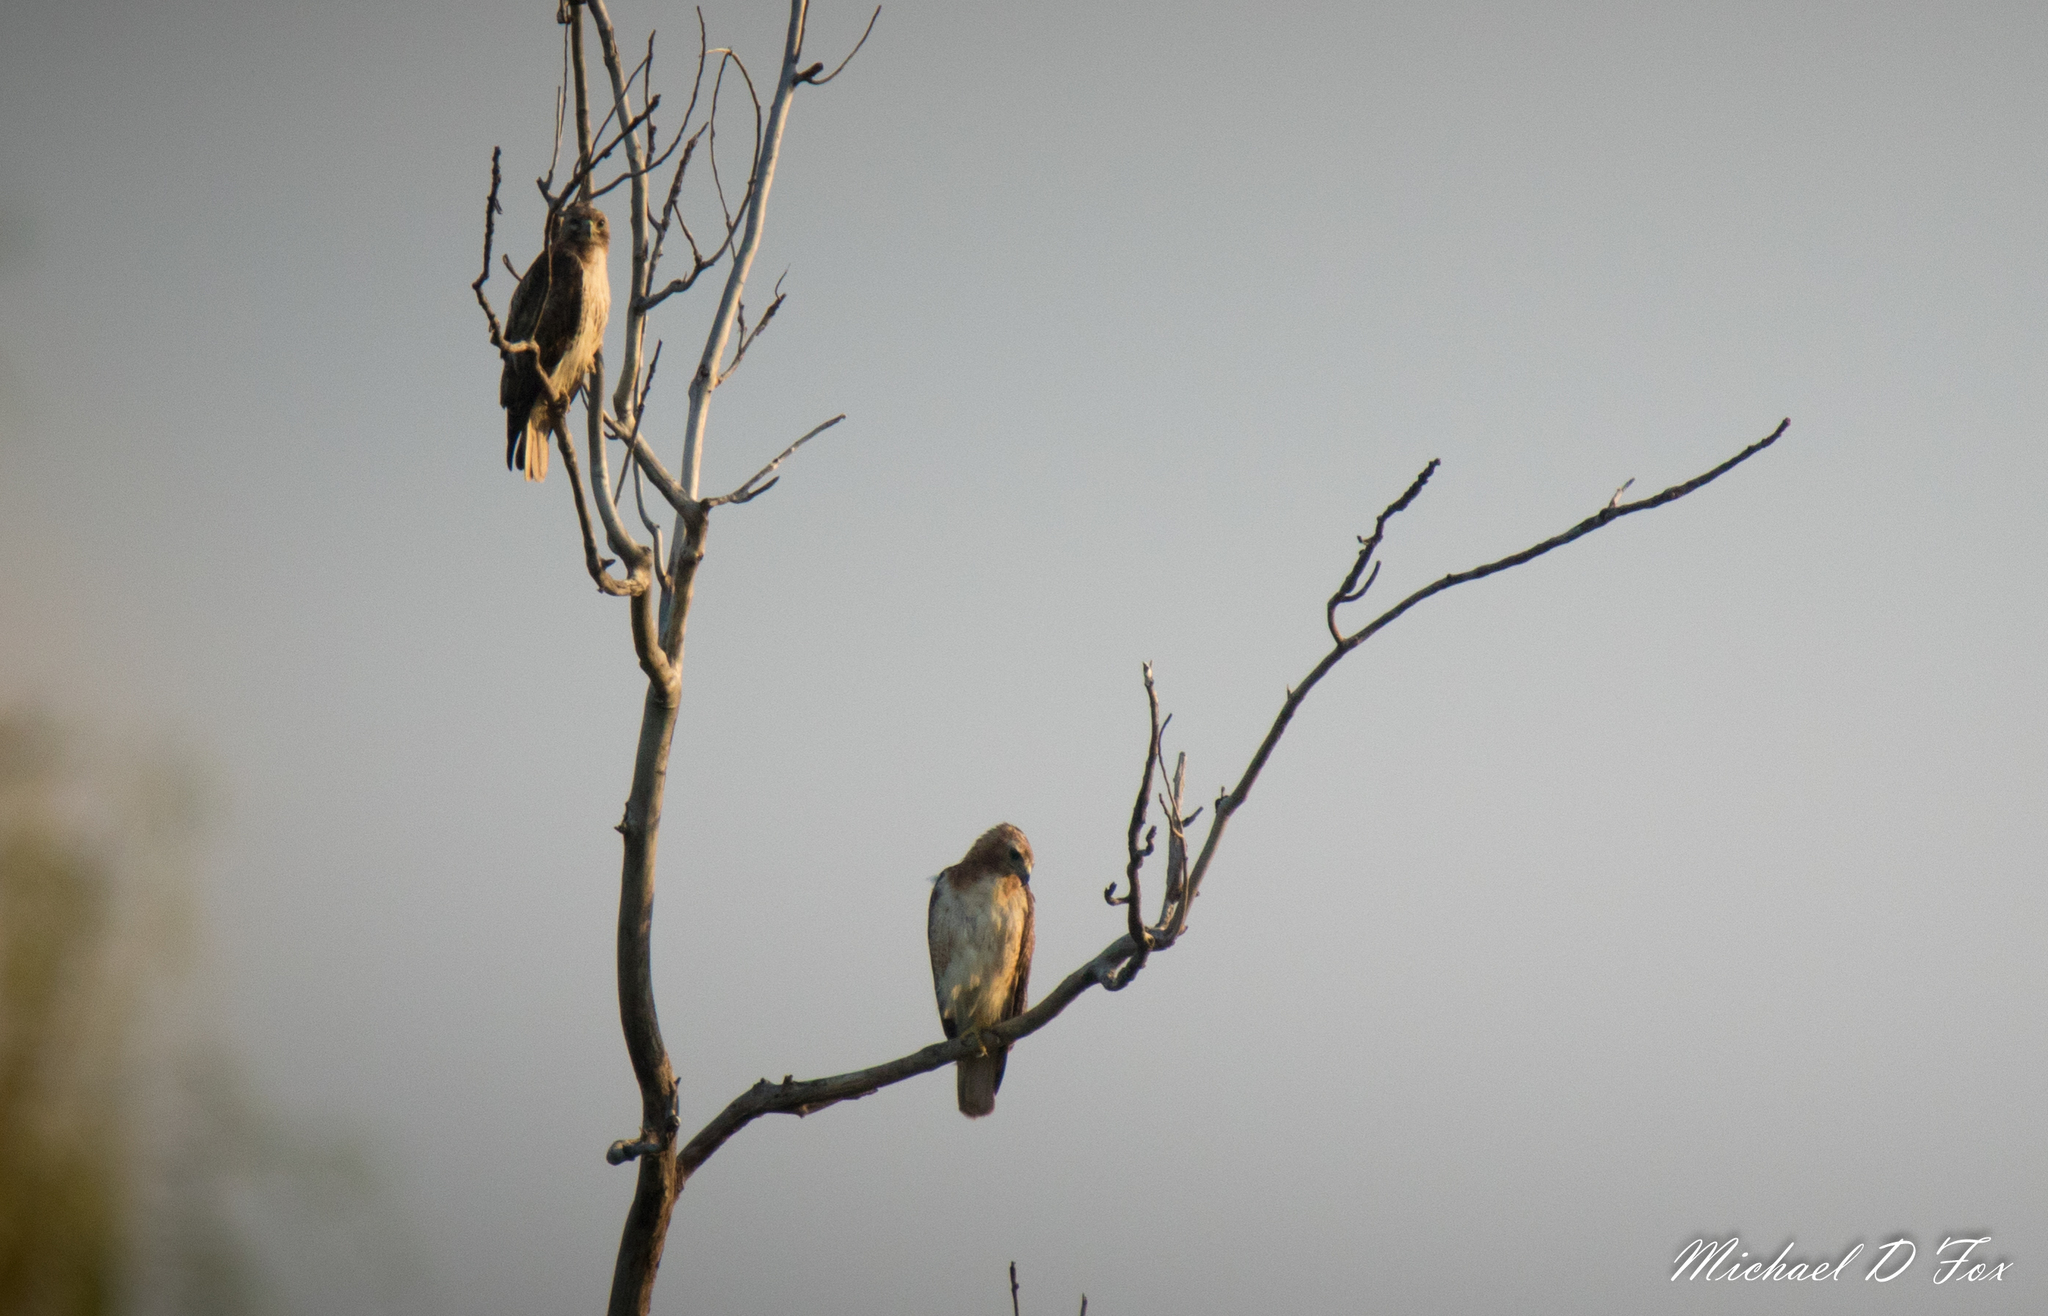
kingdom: Animalia
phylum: Chordata
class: Aves
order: Accipitriformes
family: Accipitridae
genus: Buteo
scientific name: Buteo jamaicensis
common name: Red-tailed hawk
